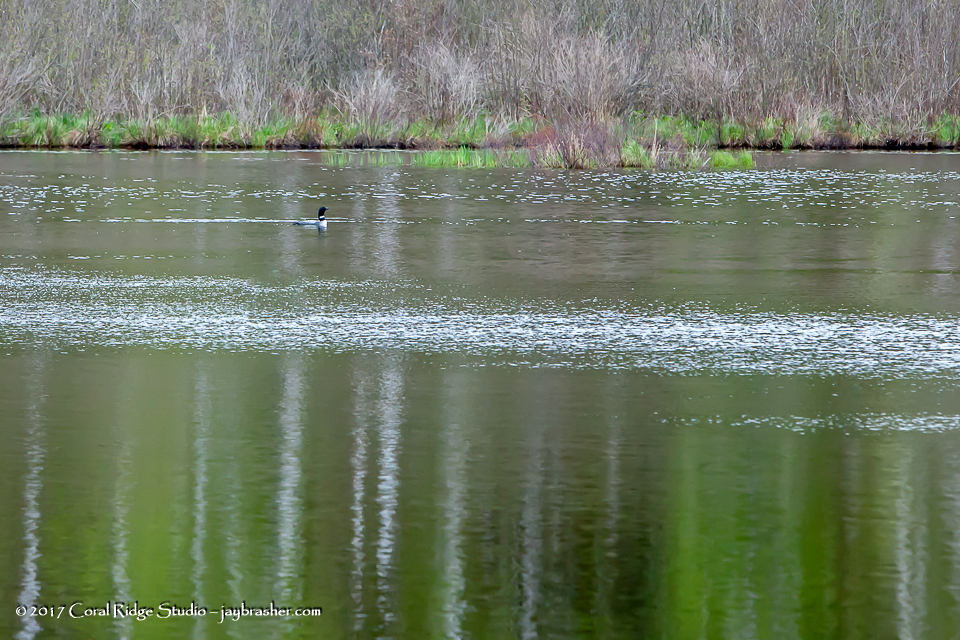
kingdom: Animalia
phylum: Chordata
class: Aves
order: Gaviiformes
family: Gaviidae
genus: Gavia
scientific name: Gavia immer
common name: Common loon
